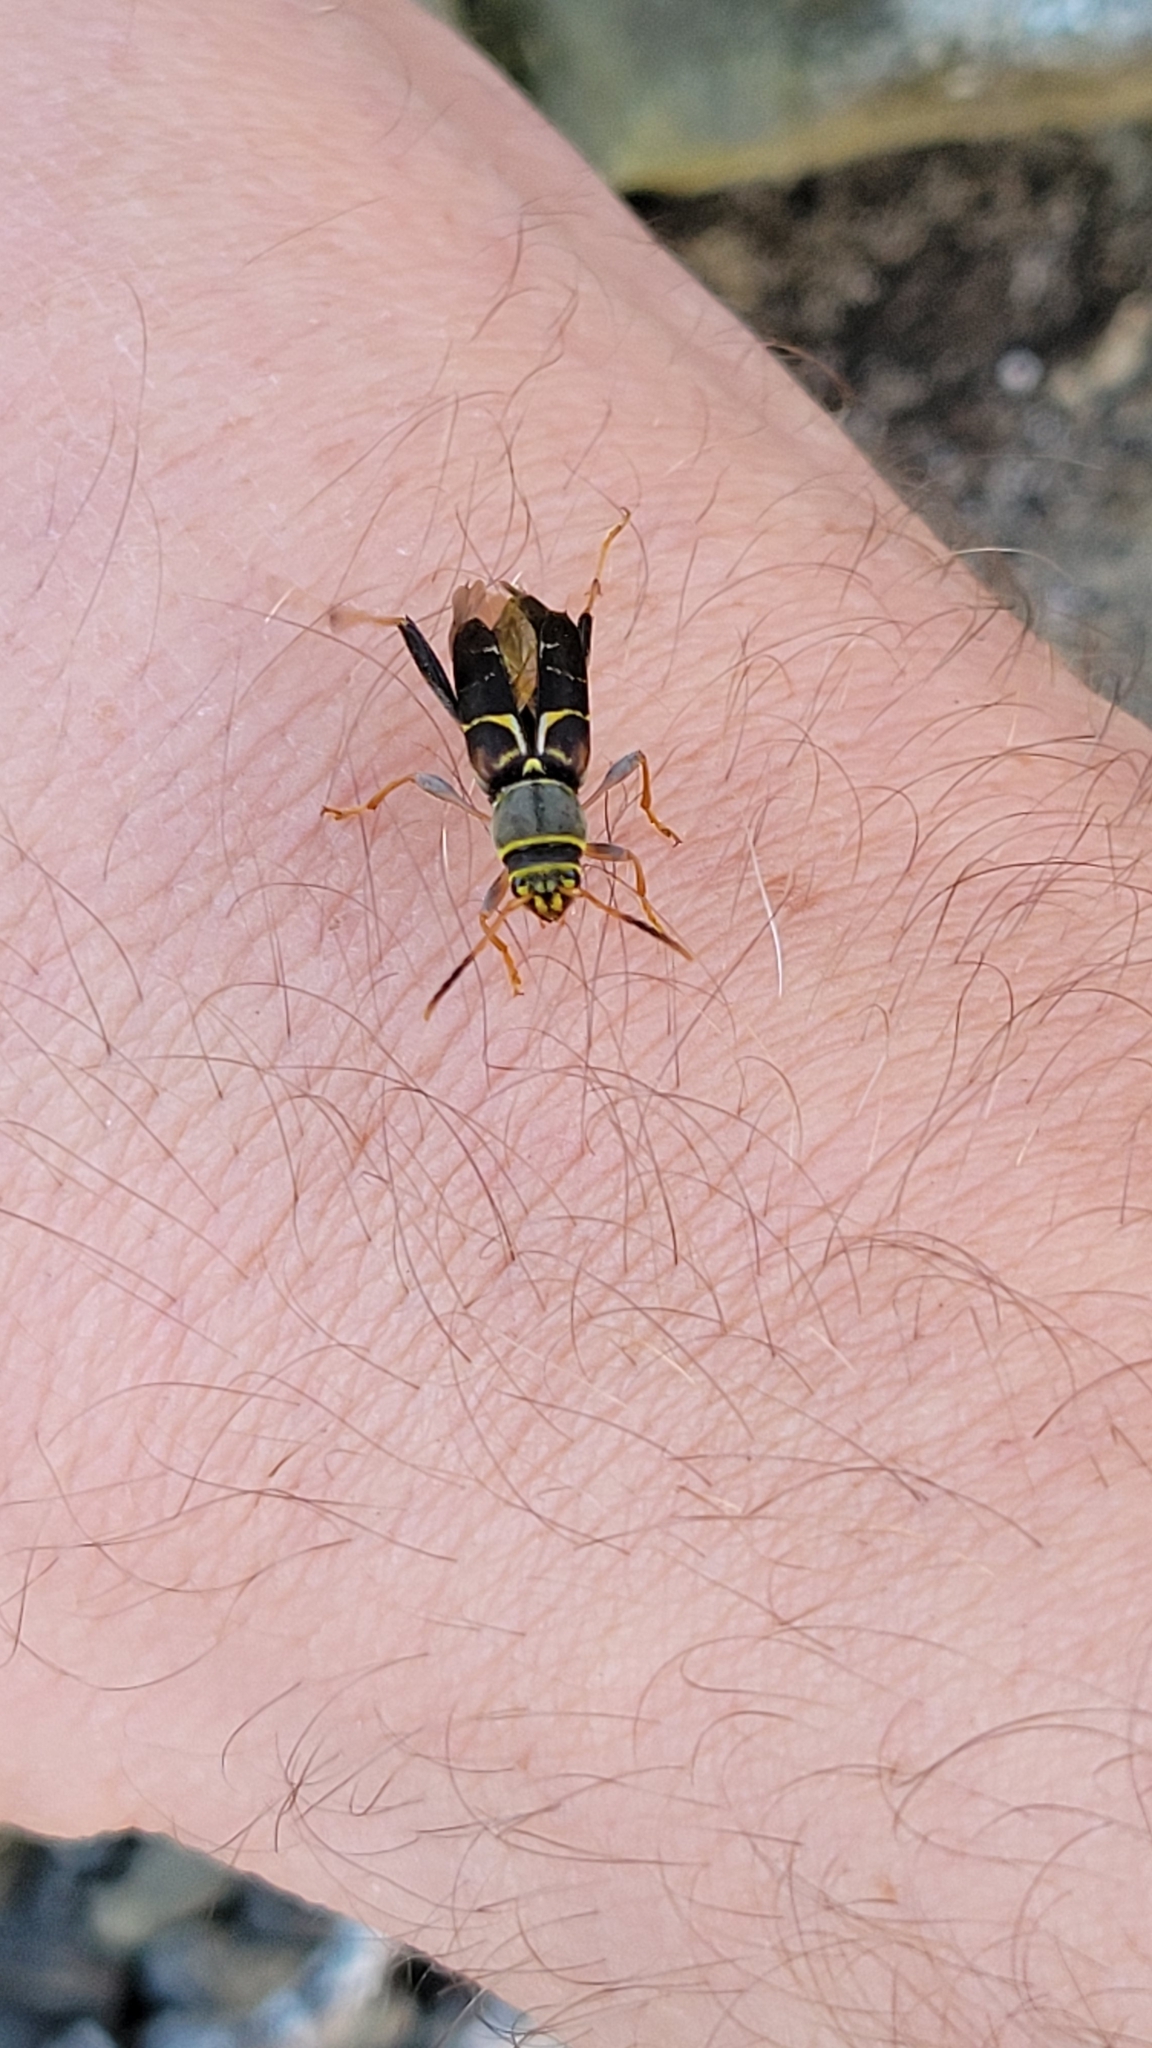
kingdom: Animalia
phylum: Arthropoda
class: Insecta
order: Coleoptera
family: Cerambycidae
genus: Neoclytus
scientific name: Neoclytus mucronatus
